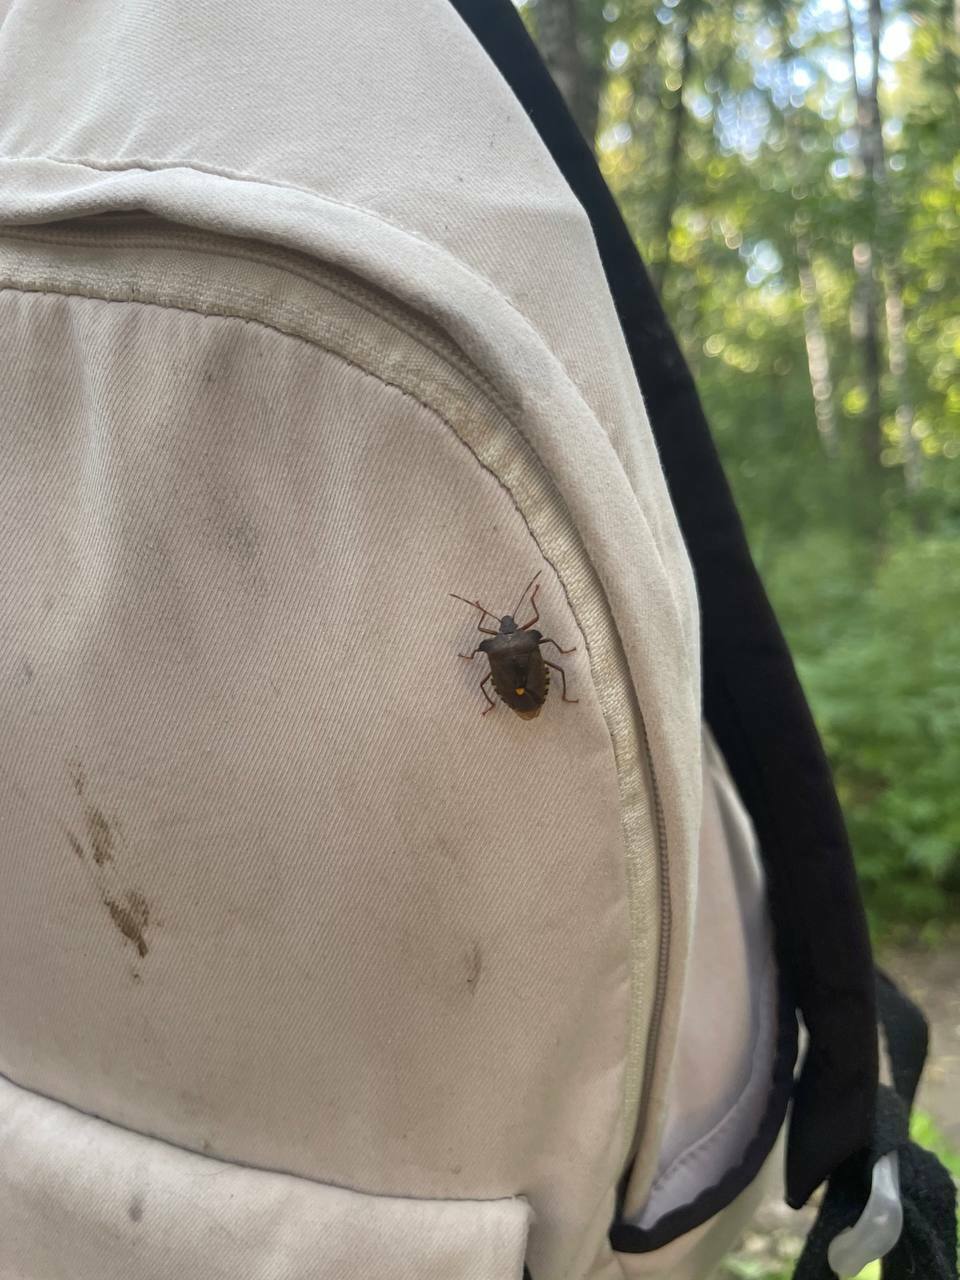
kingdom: Animalia
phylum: Arthropoda
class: Insecta
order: Hemiptera
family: Pentatomidae
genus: Pentatoma
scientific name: Pentatoma rufipes
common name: Forest bug
